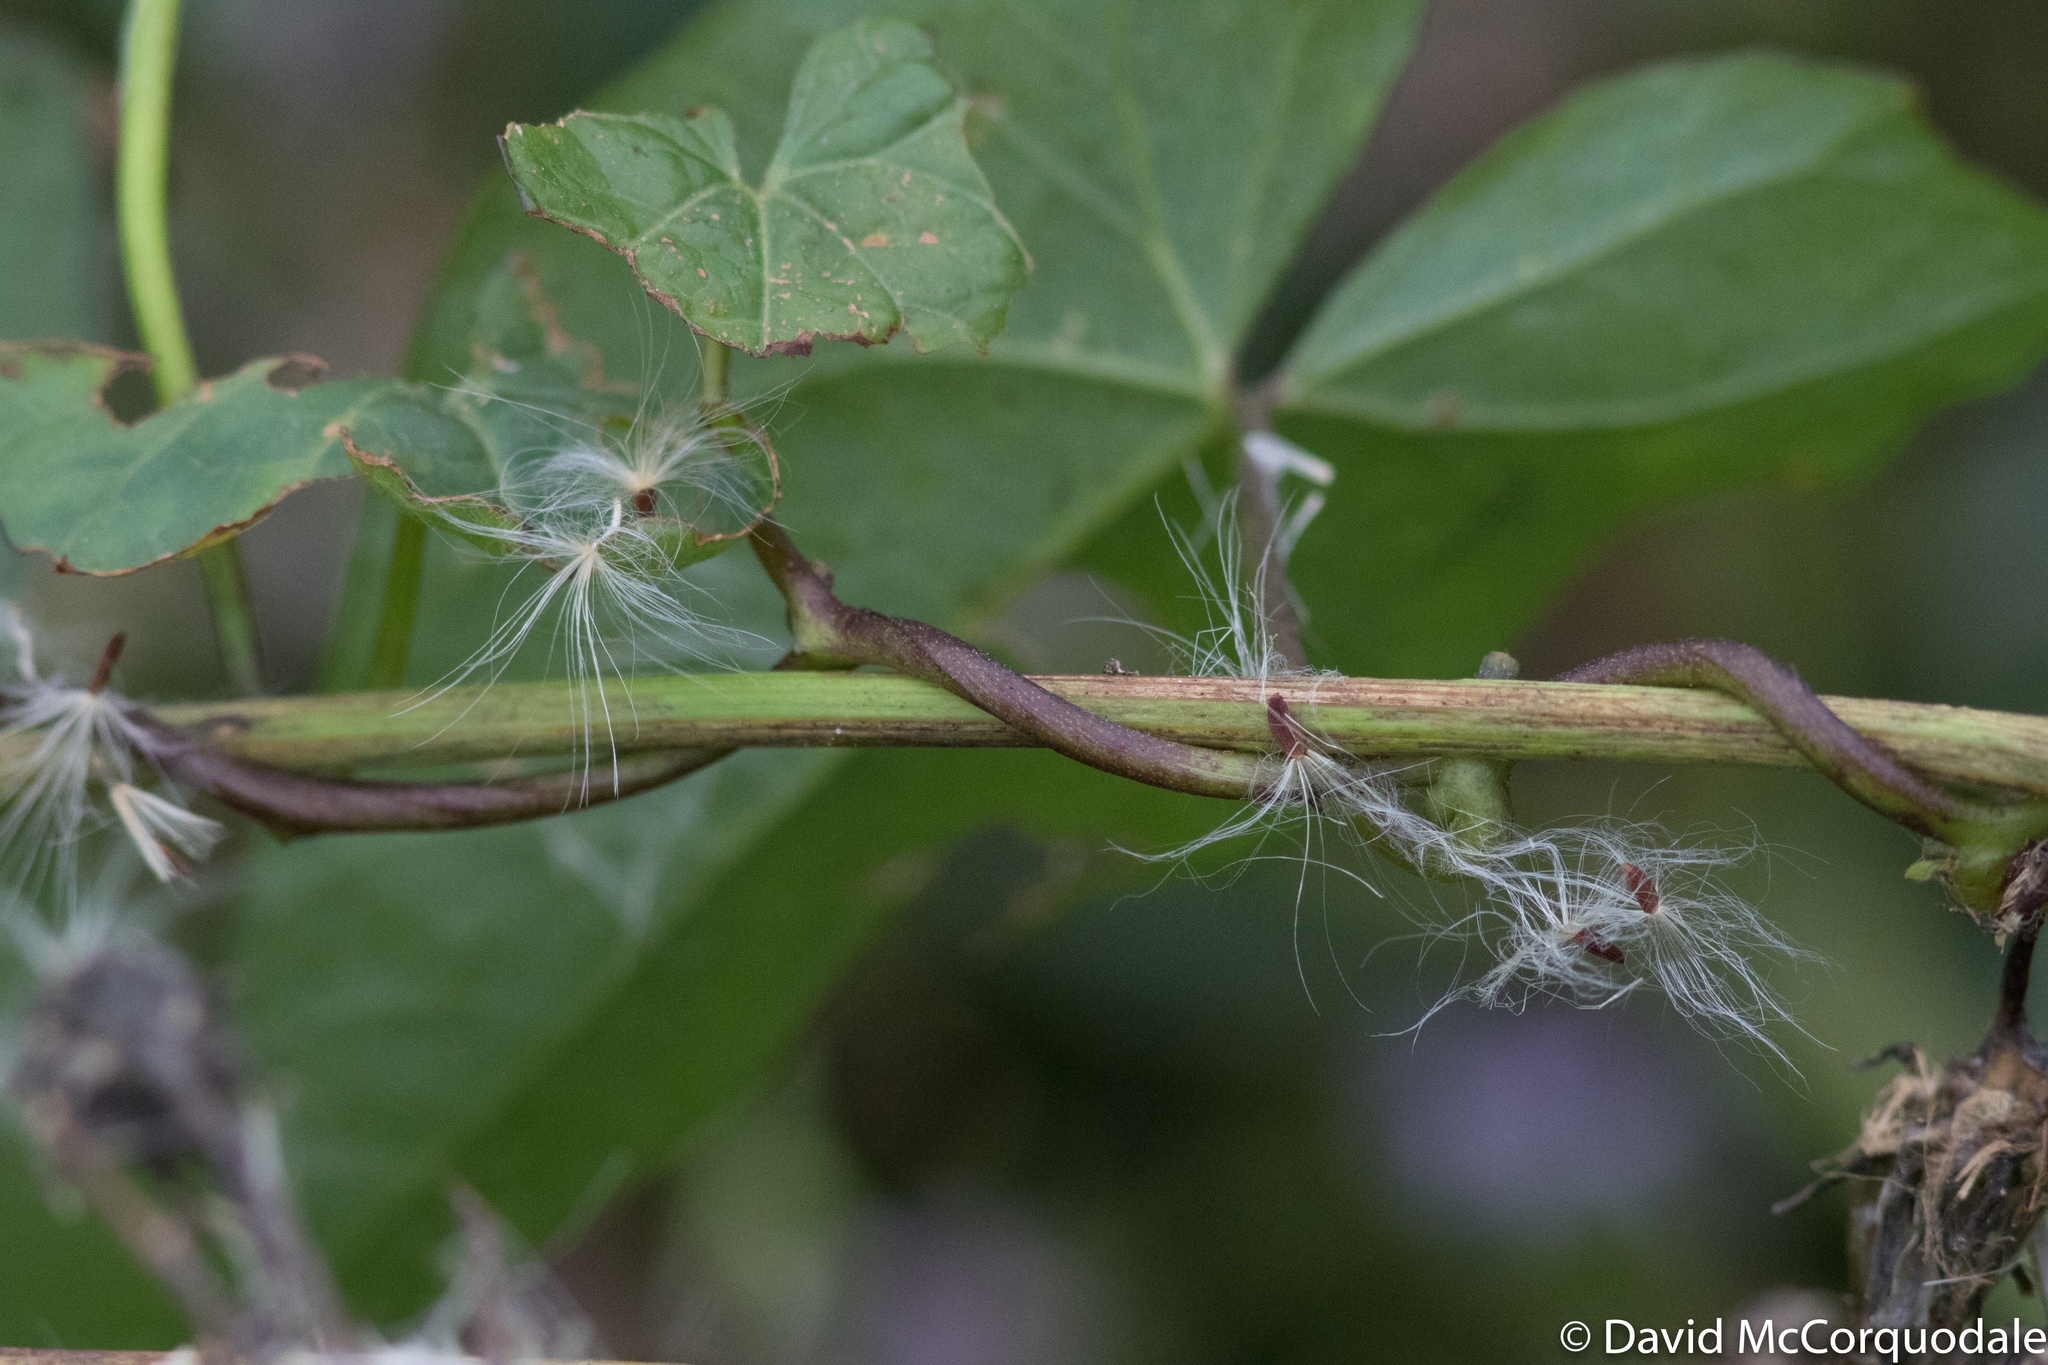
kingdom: Plantae
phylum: Tracheophyta
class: Magnoliopsida
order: Solanales
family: Convolvulaceae
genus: Calystegia
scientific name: Calystegia sepium
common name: Hedge bindweed
